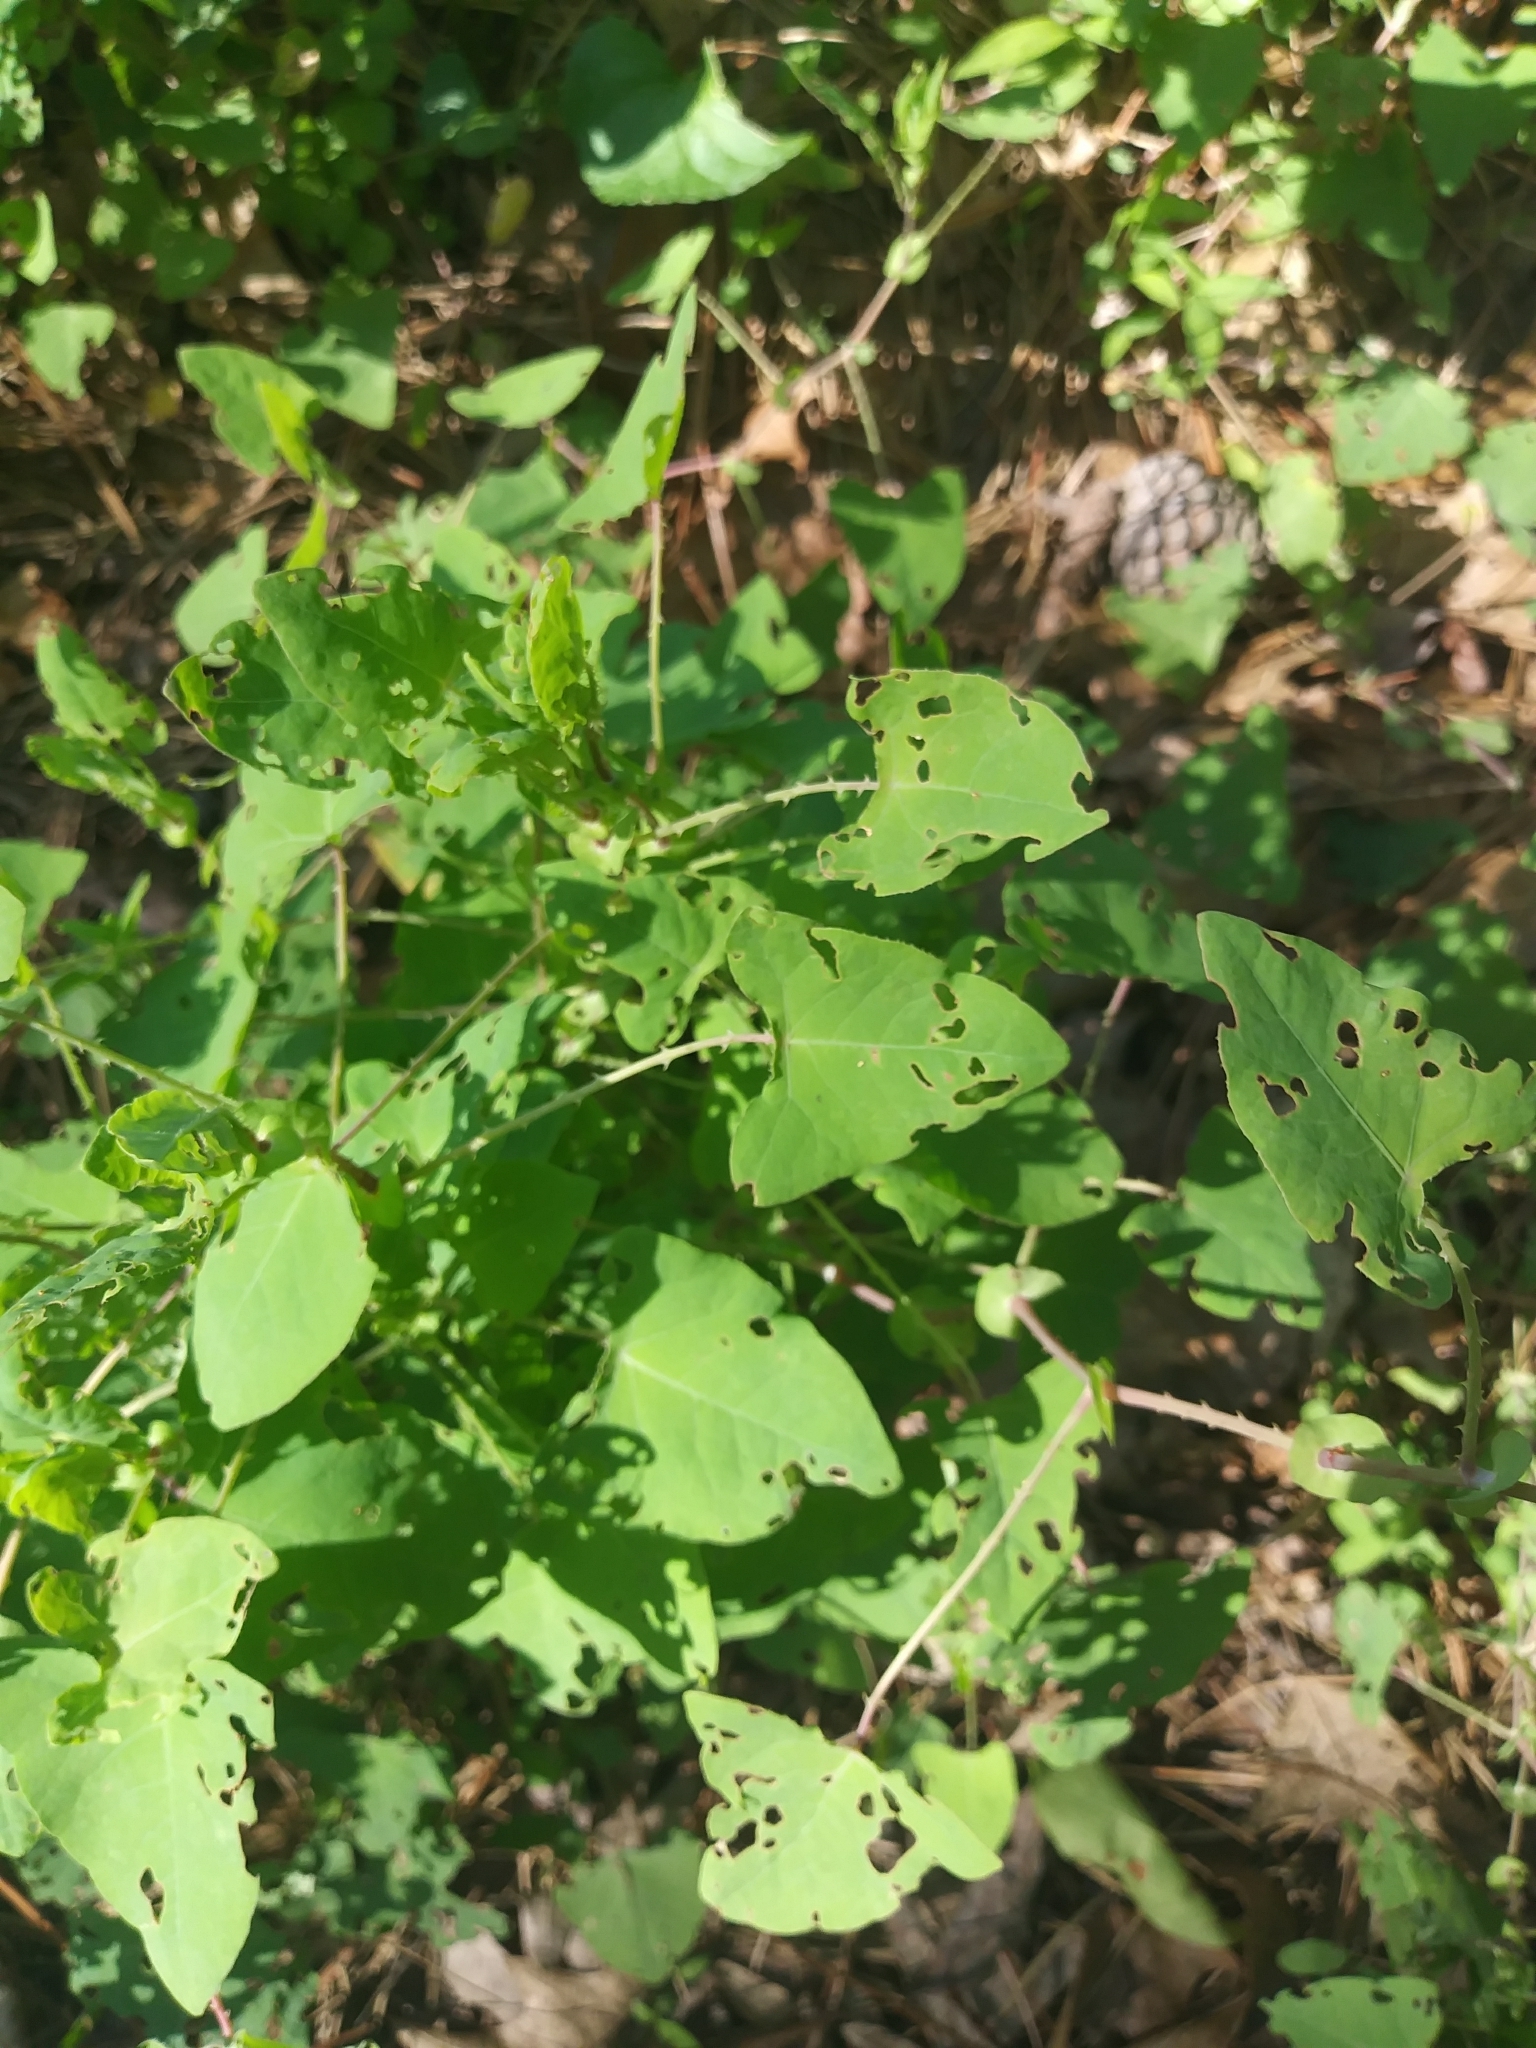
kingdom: Plantae
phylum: Tracheophyta
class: Magnoliopsida
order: Caryophyllales
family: Polygonaceae
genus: Persicaria
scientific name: Persicaria perfoliata
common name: Asiatic tearthumb
